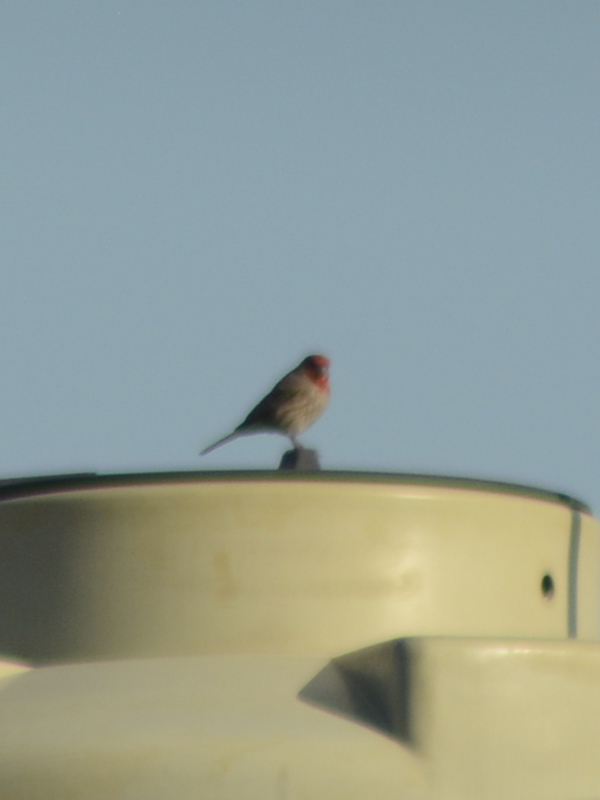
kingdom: Animalia
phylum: Chordata
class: Aves
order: Passeriformes
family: Fringillidae
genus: Haemorhous
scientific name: Haemorhous mexicanus
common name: House finch
